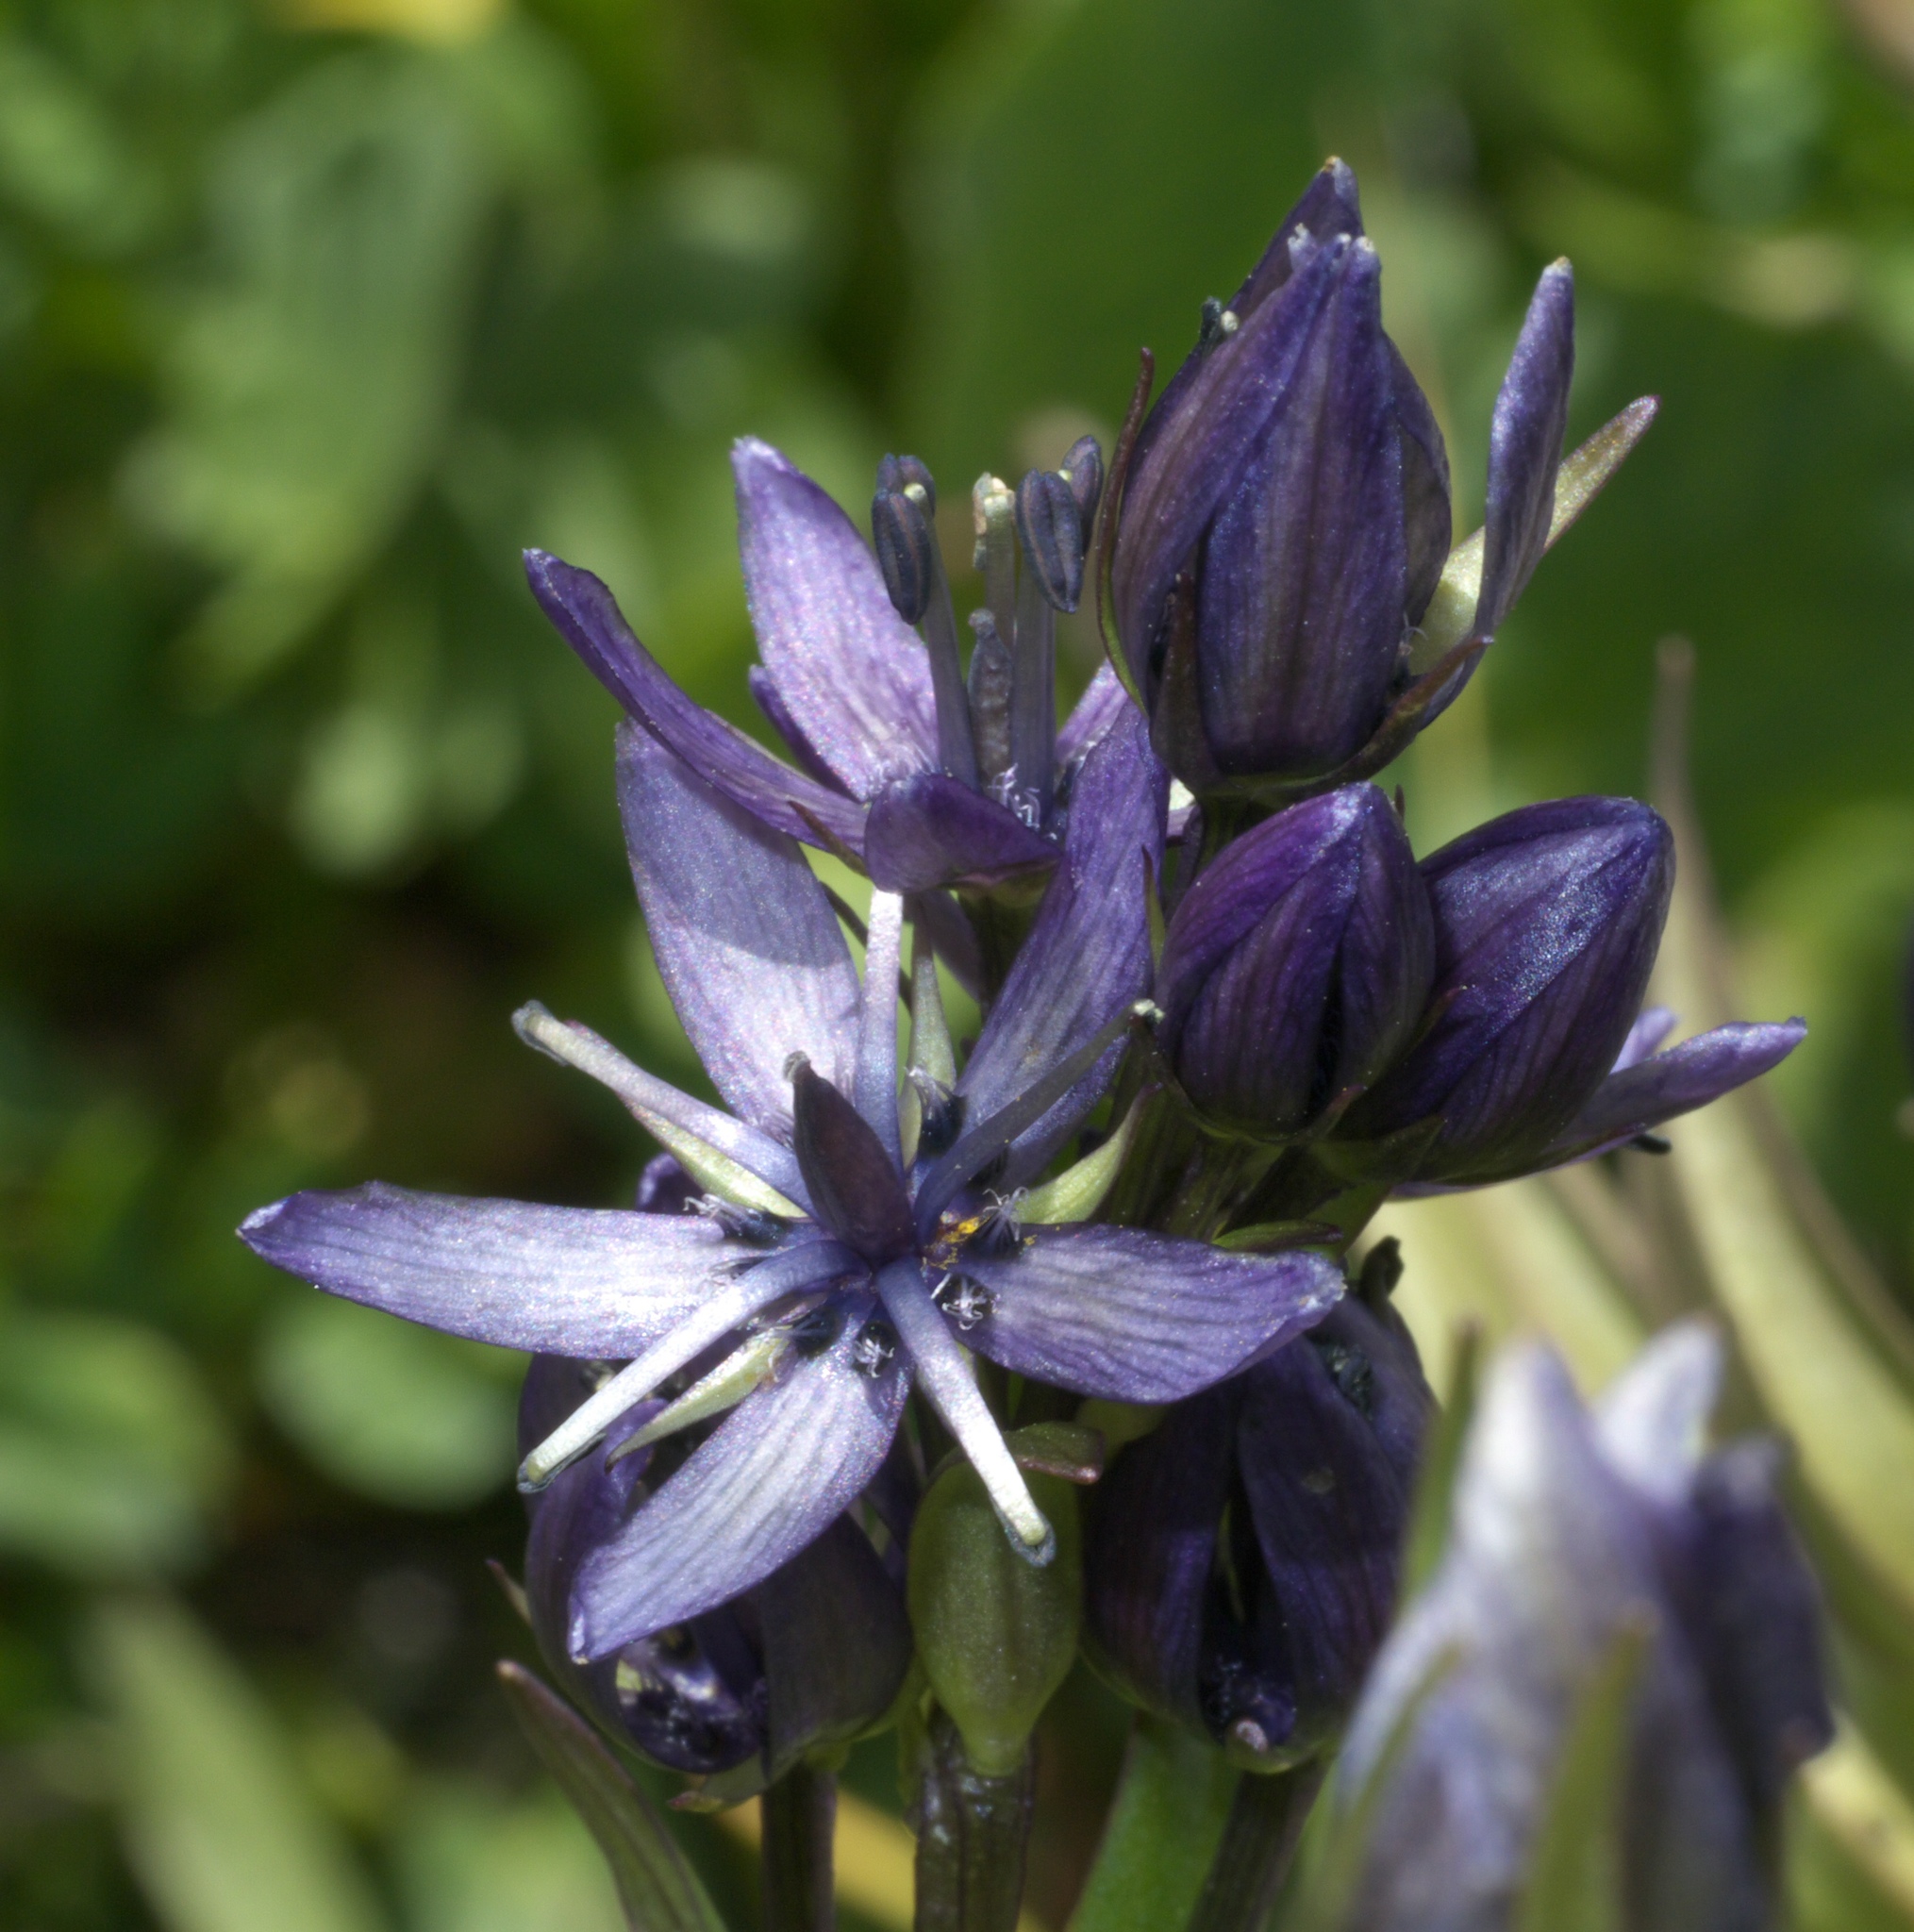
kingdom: Plantae
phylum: Tracheophyta
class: Magnoliopsida
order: Gentianales
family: Gentianaceae
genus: Swertia
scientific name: Swertia perennis
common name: Alpine bog swertia
